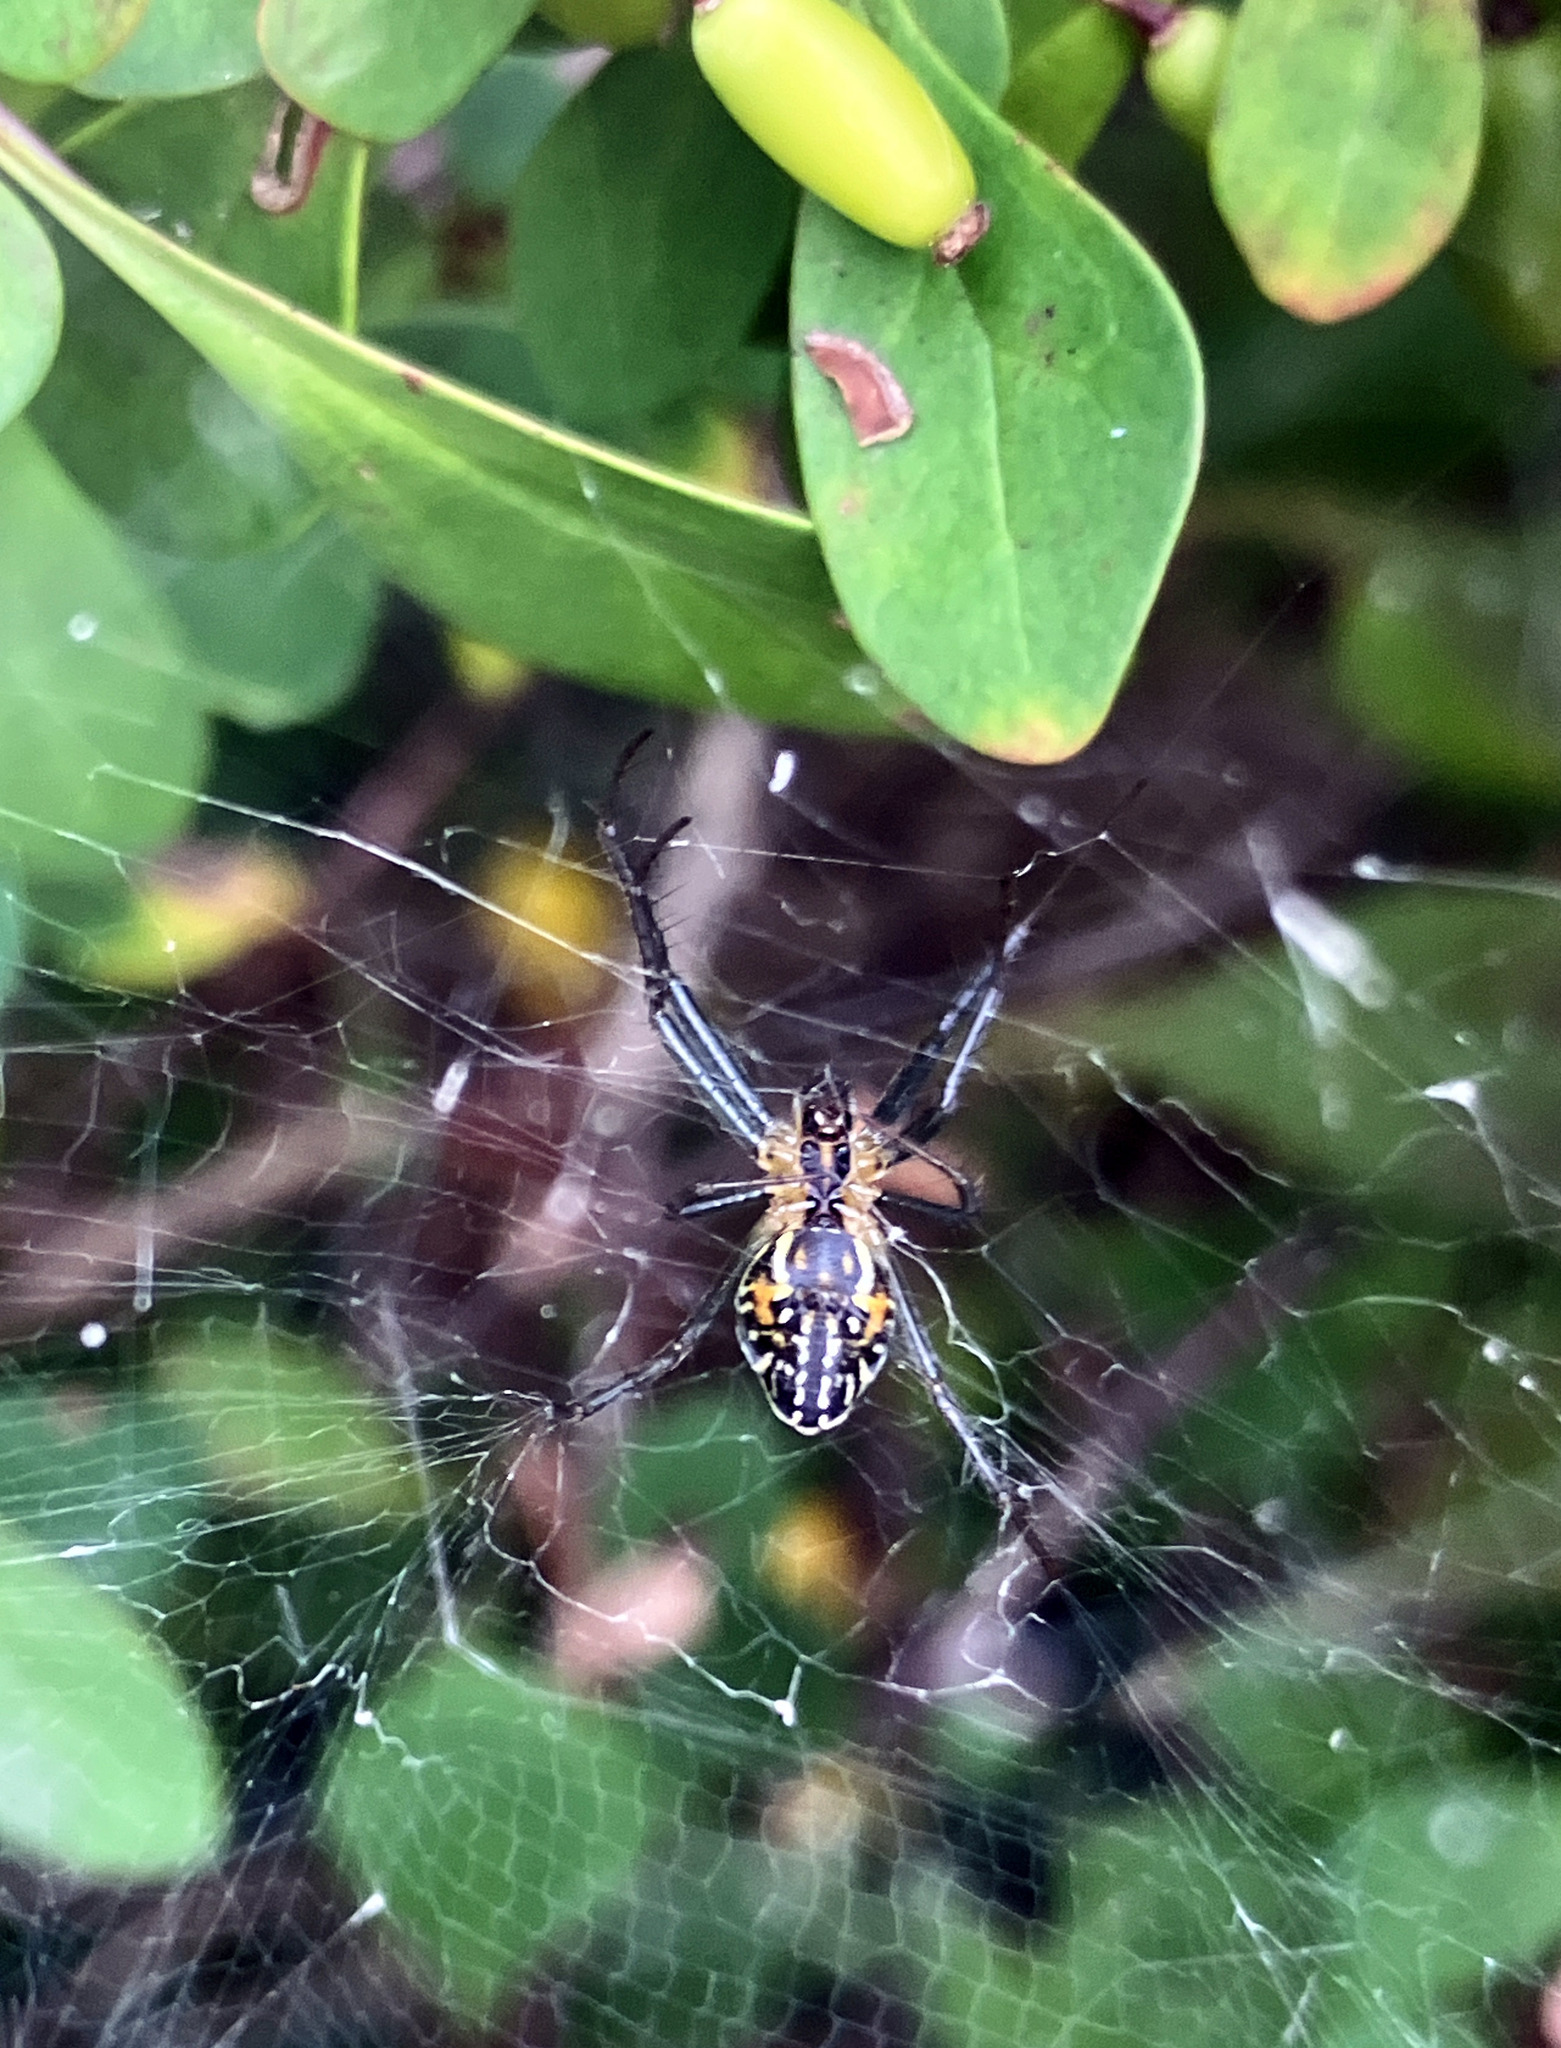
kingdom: Animalia
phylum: Arthropoda
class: Arachnida
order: Araneae
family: Araneidae
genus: Mecynogea
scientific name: Mecynogea lemniscata
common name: Orb weavers
